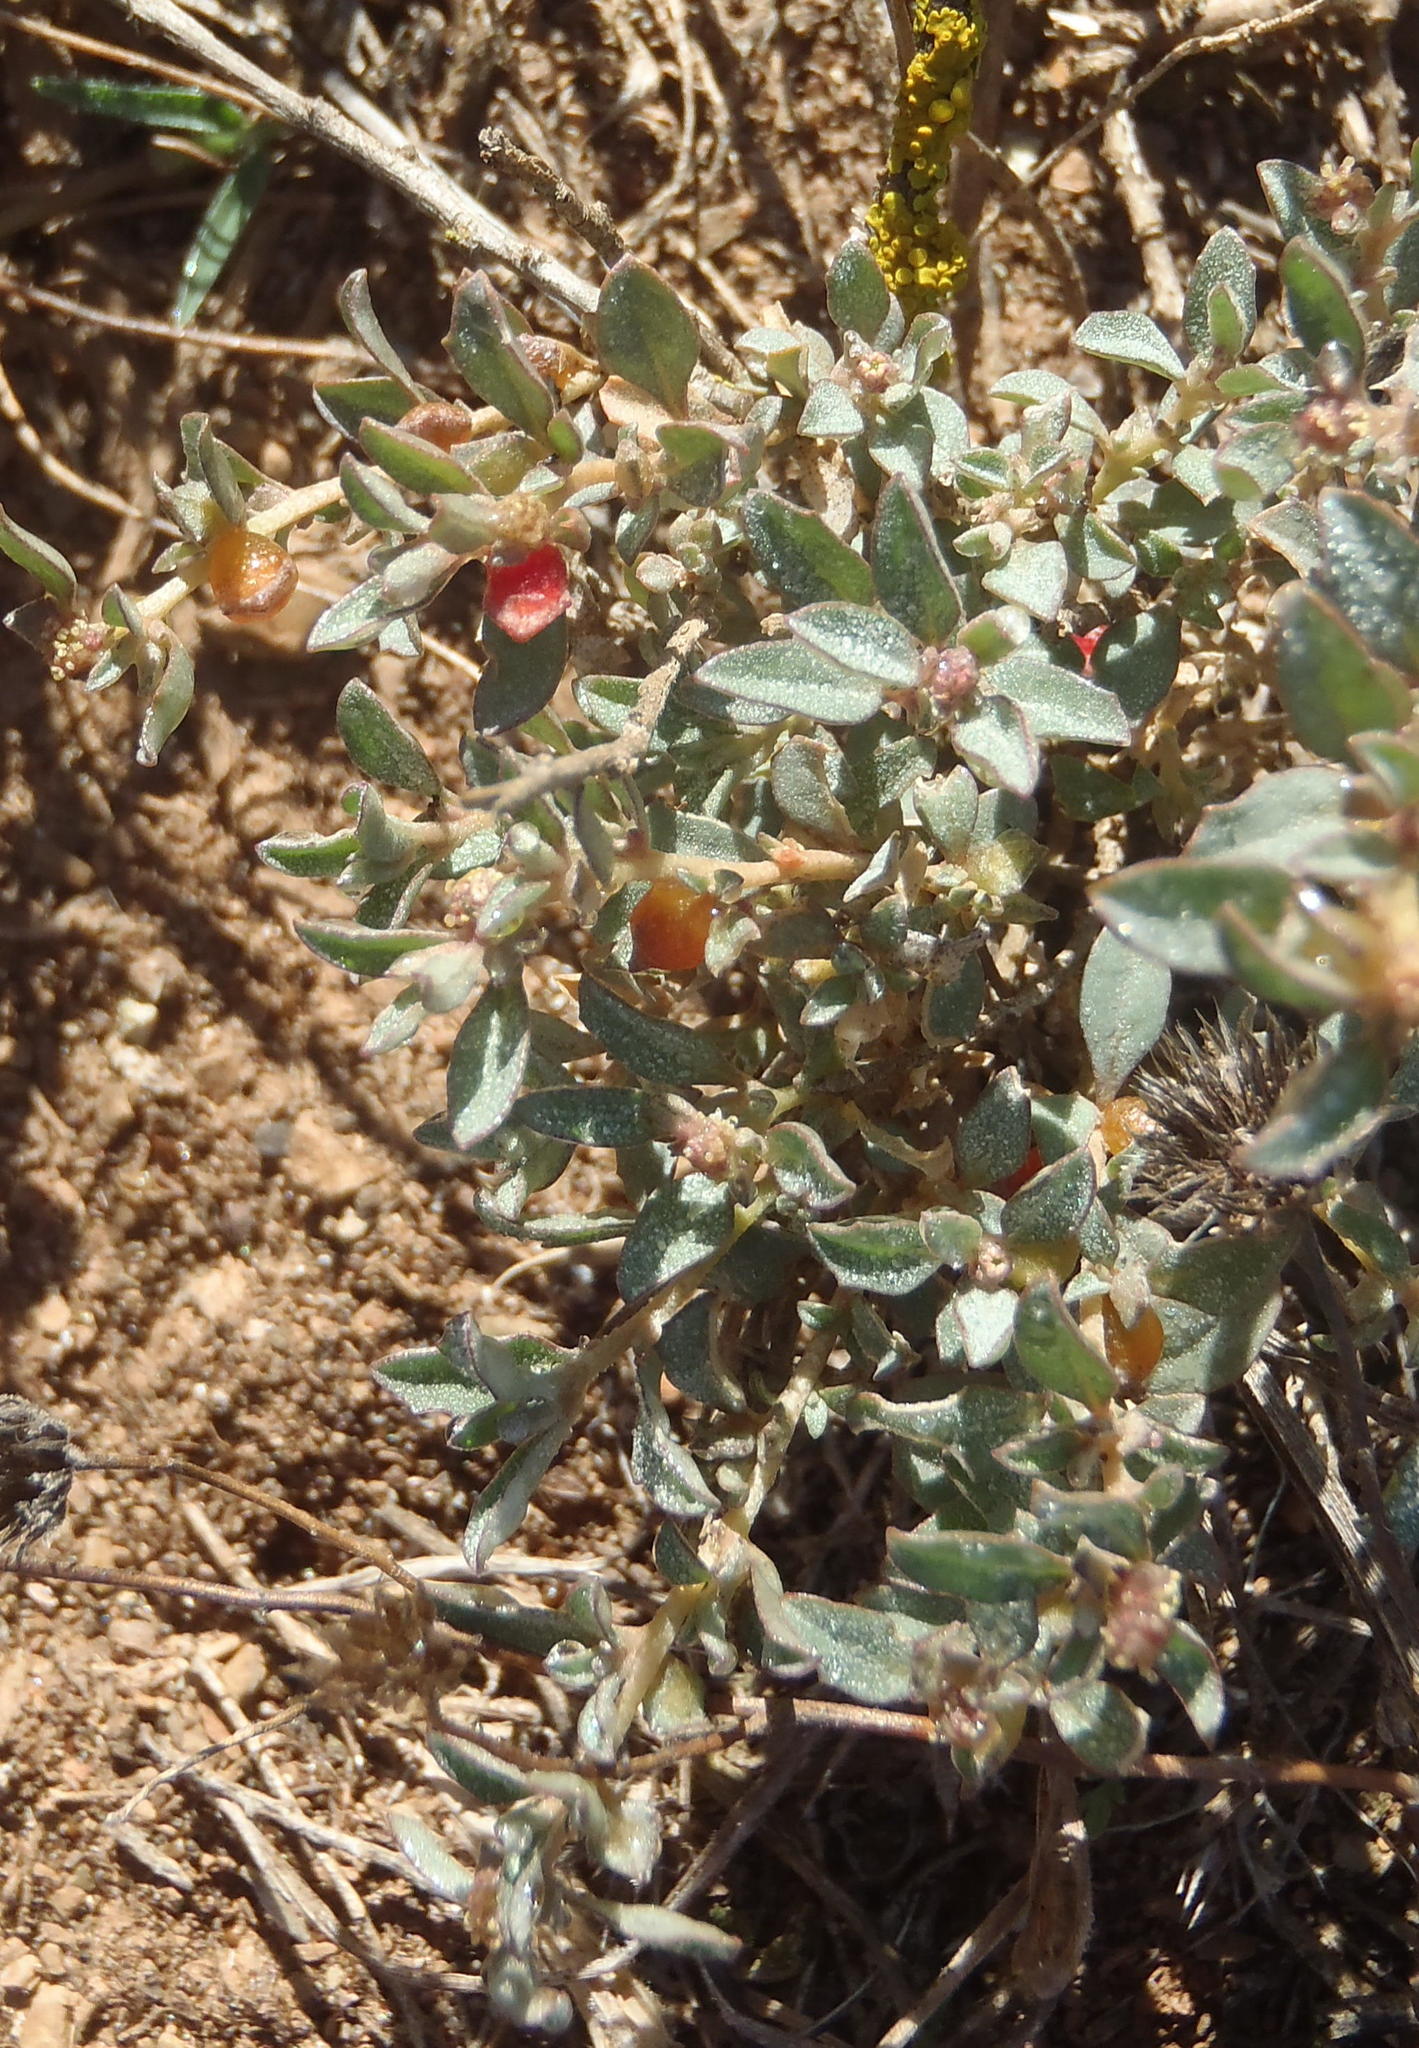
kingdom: Plantae
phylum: Tracheophyta
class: Magnoliopsida
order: Caryophyllales
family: Amaranthaceae
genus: Atriplex
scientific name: Atriplex semibaccata
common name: Australian saltbush
